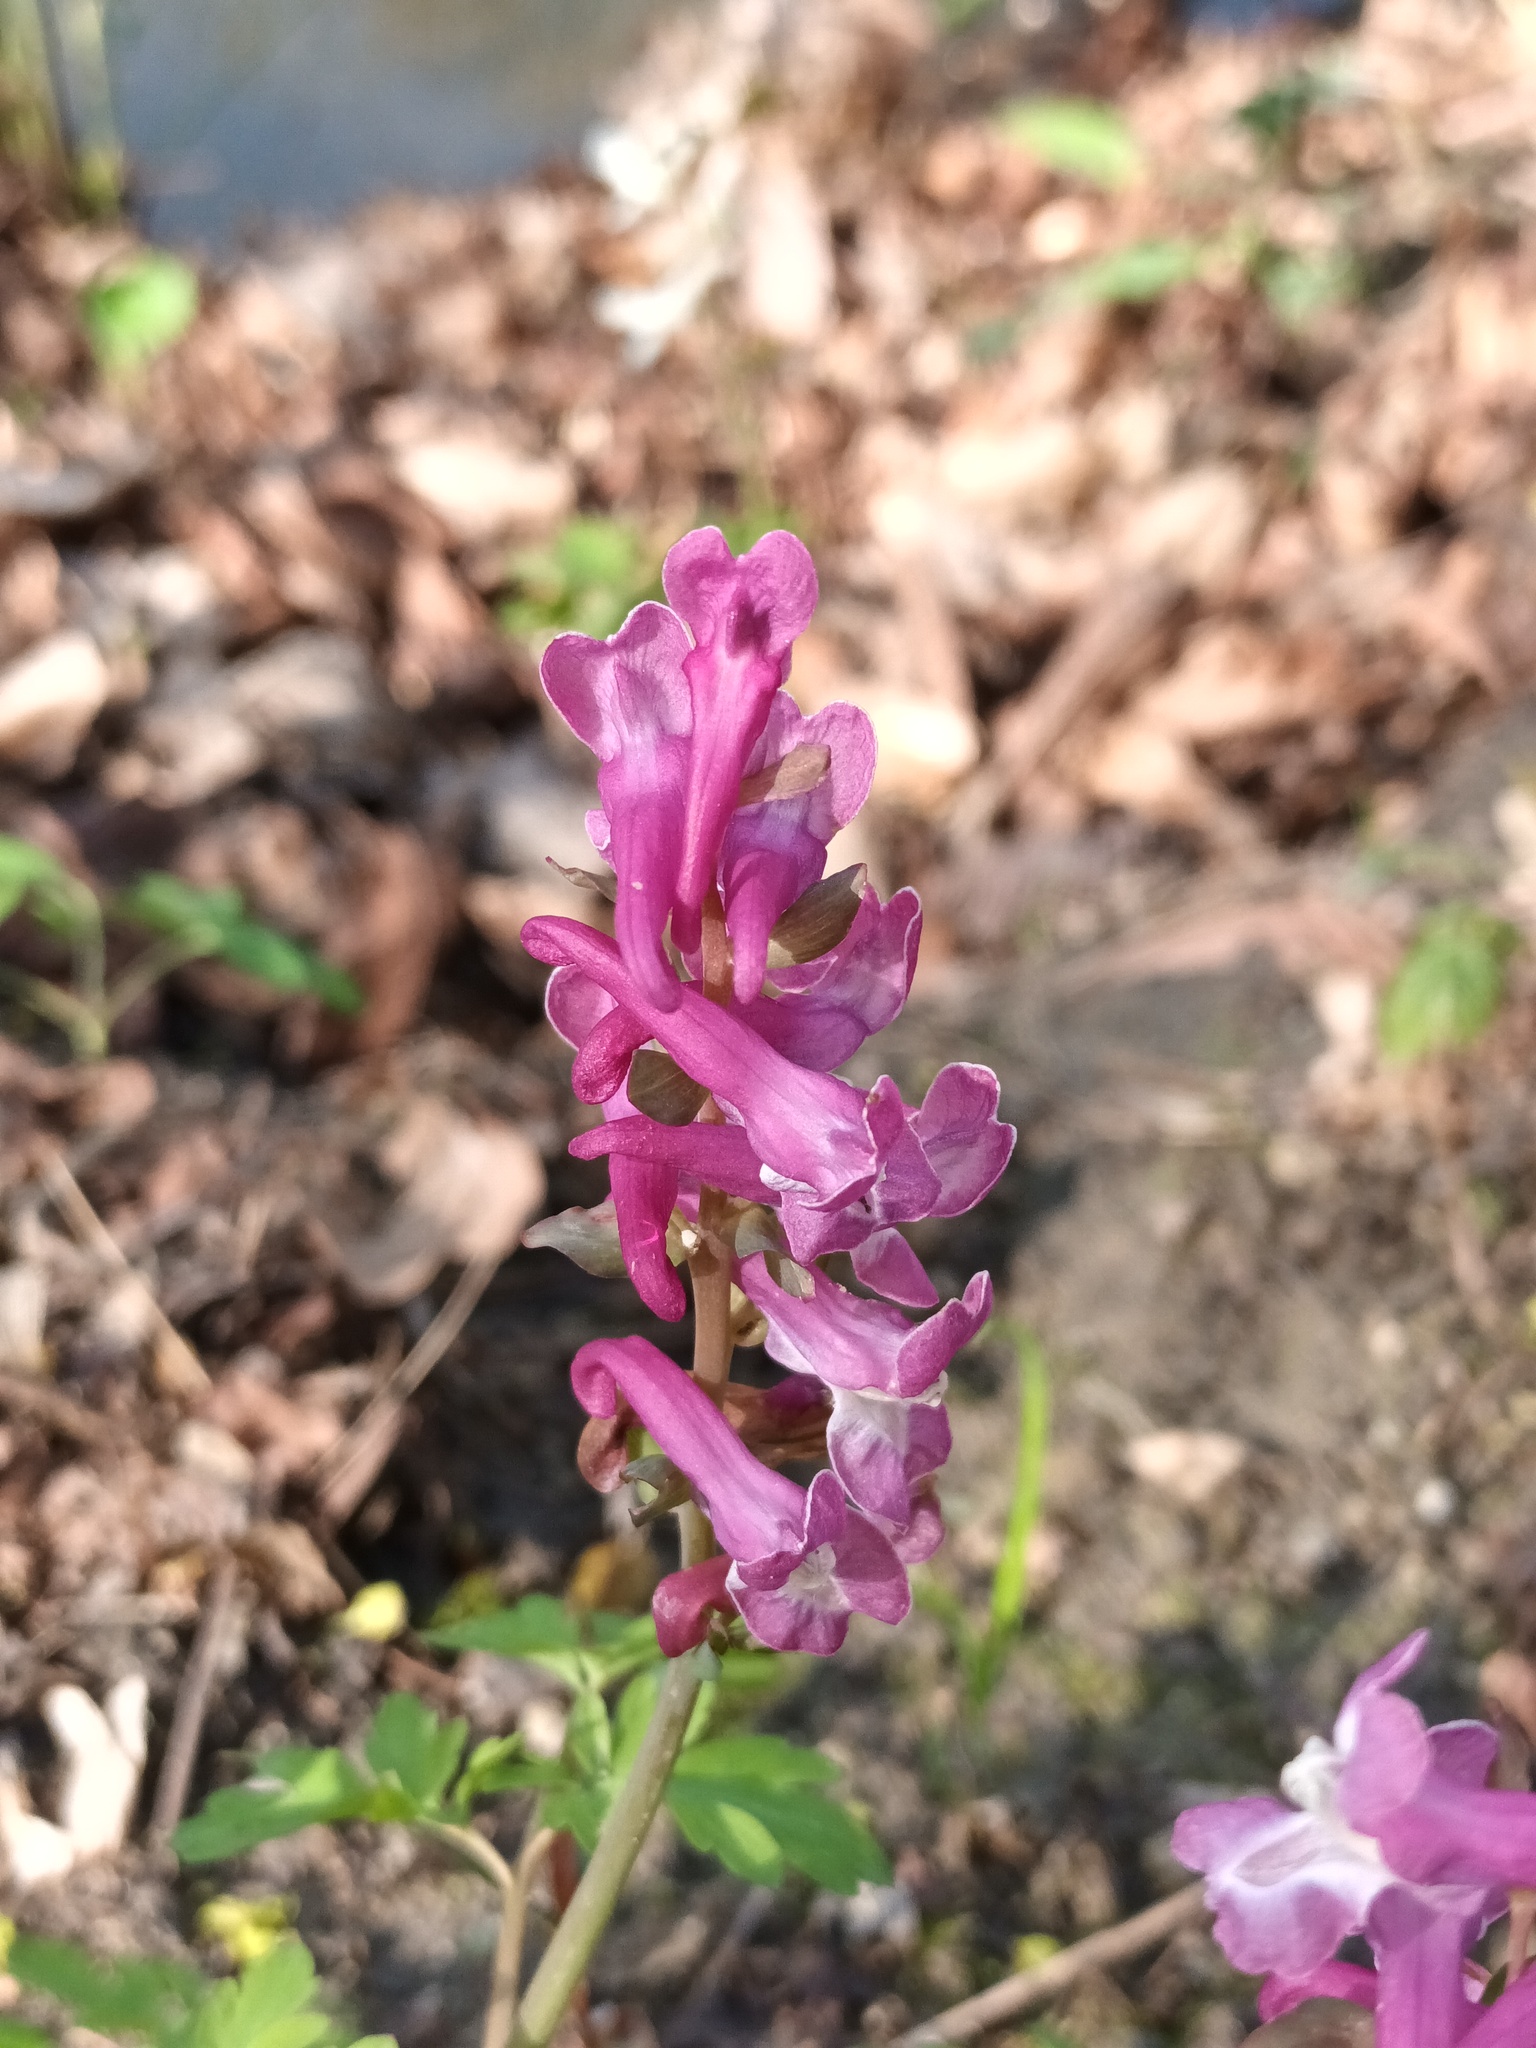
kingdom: Plantae
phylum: Tracheophyta
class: Magnoliopsida
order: Ranunculales
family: Papaveraceae
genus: Corydalis
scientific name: Corydalis cava
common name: Hollowroot
